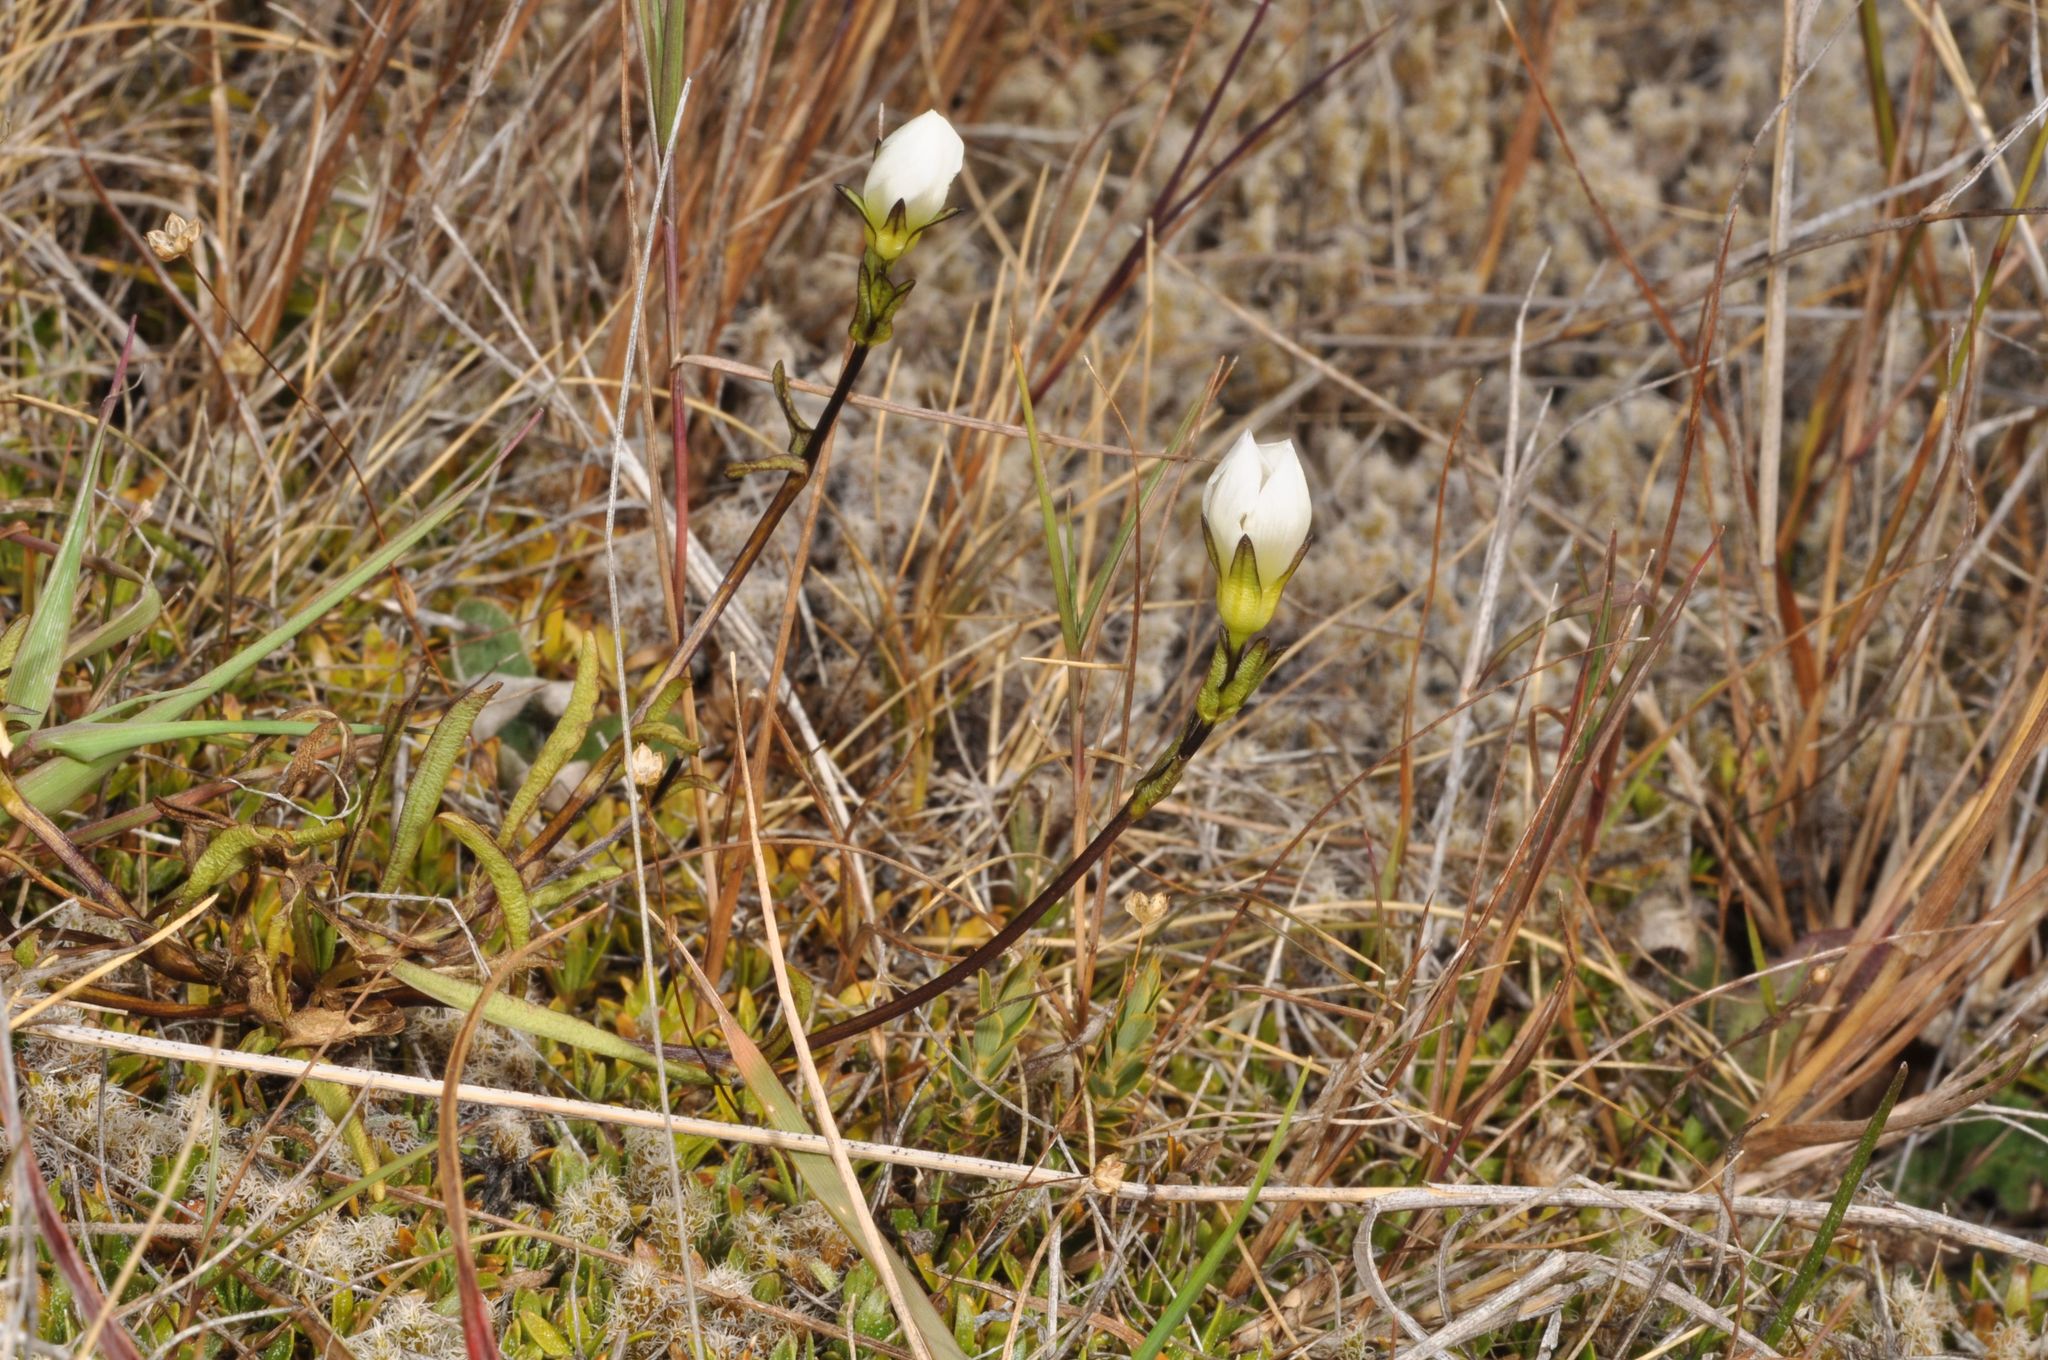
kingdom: Plantae
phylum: Tracheophyta
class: Magnoliopsida
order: Gentianales
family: Gentianaceae
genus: Gentianella
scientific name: Gentianella serotina
